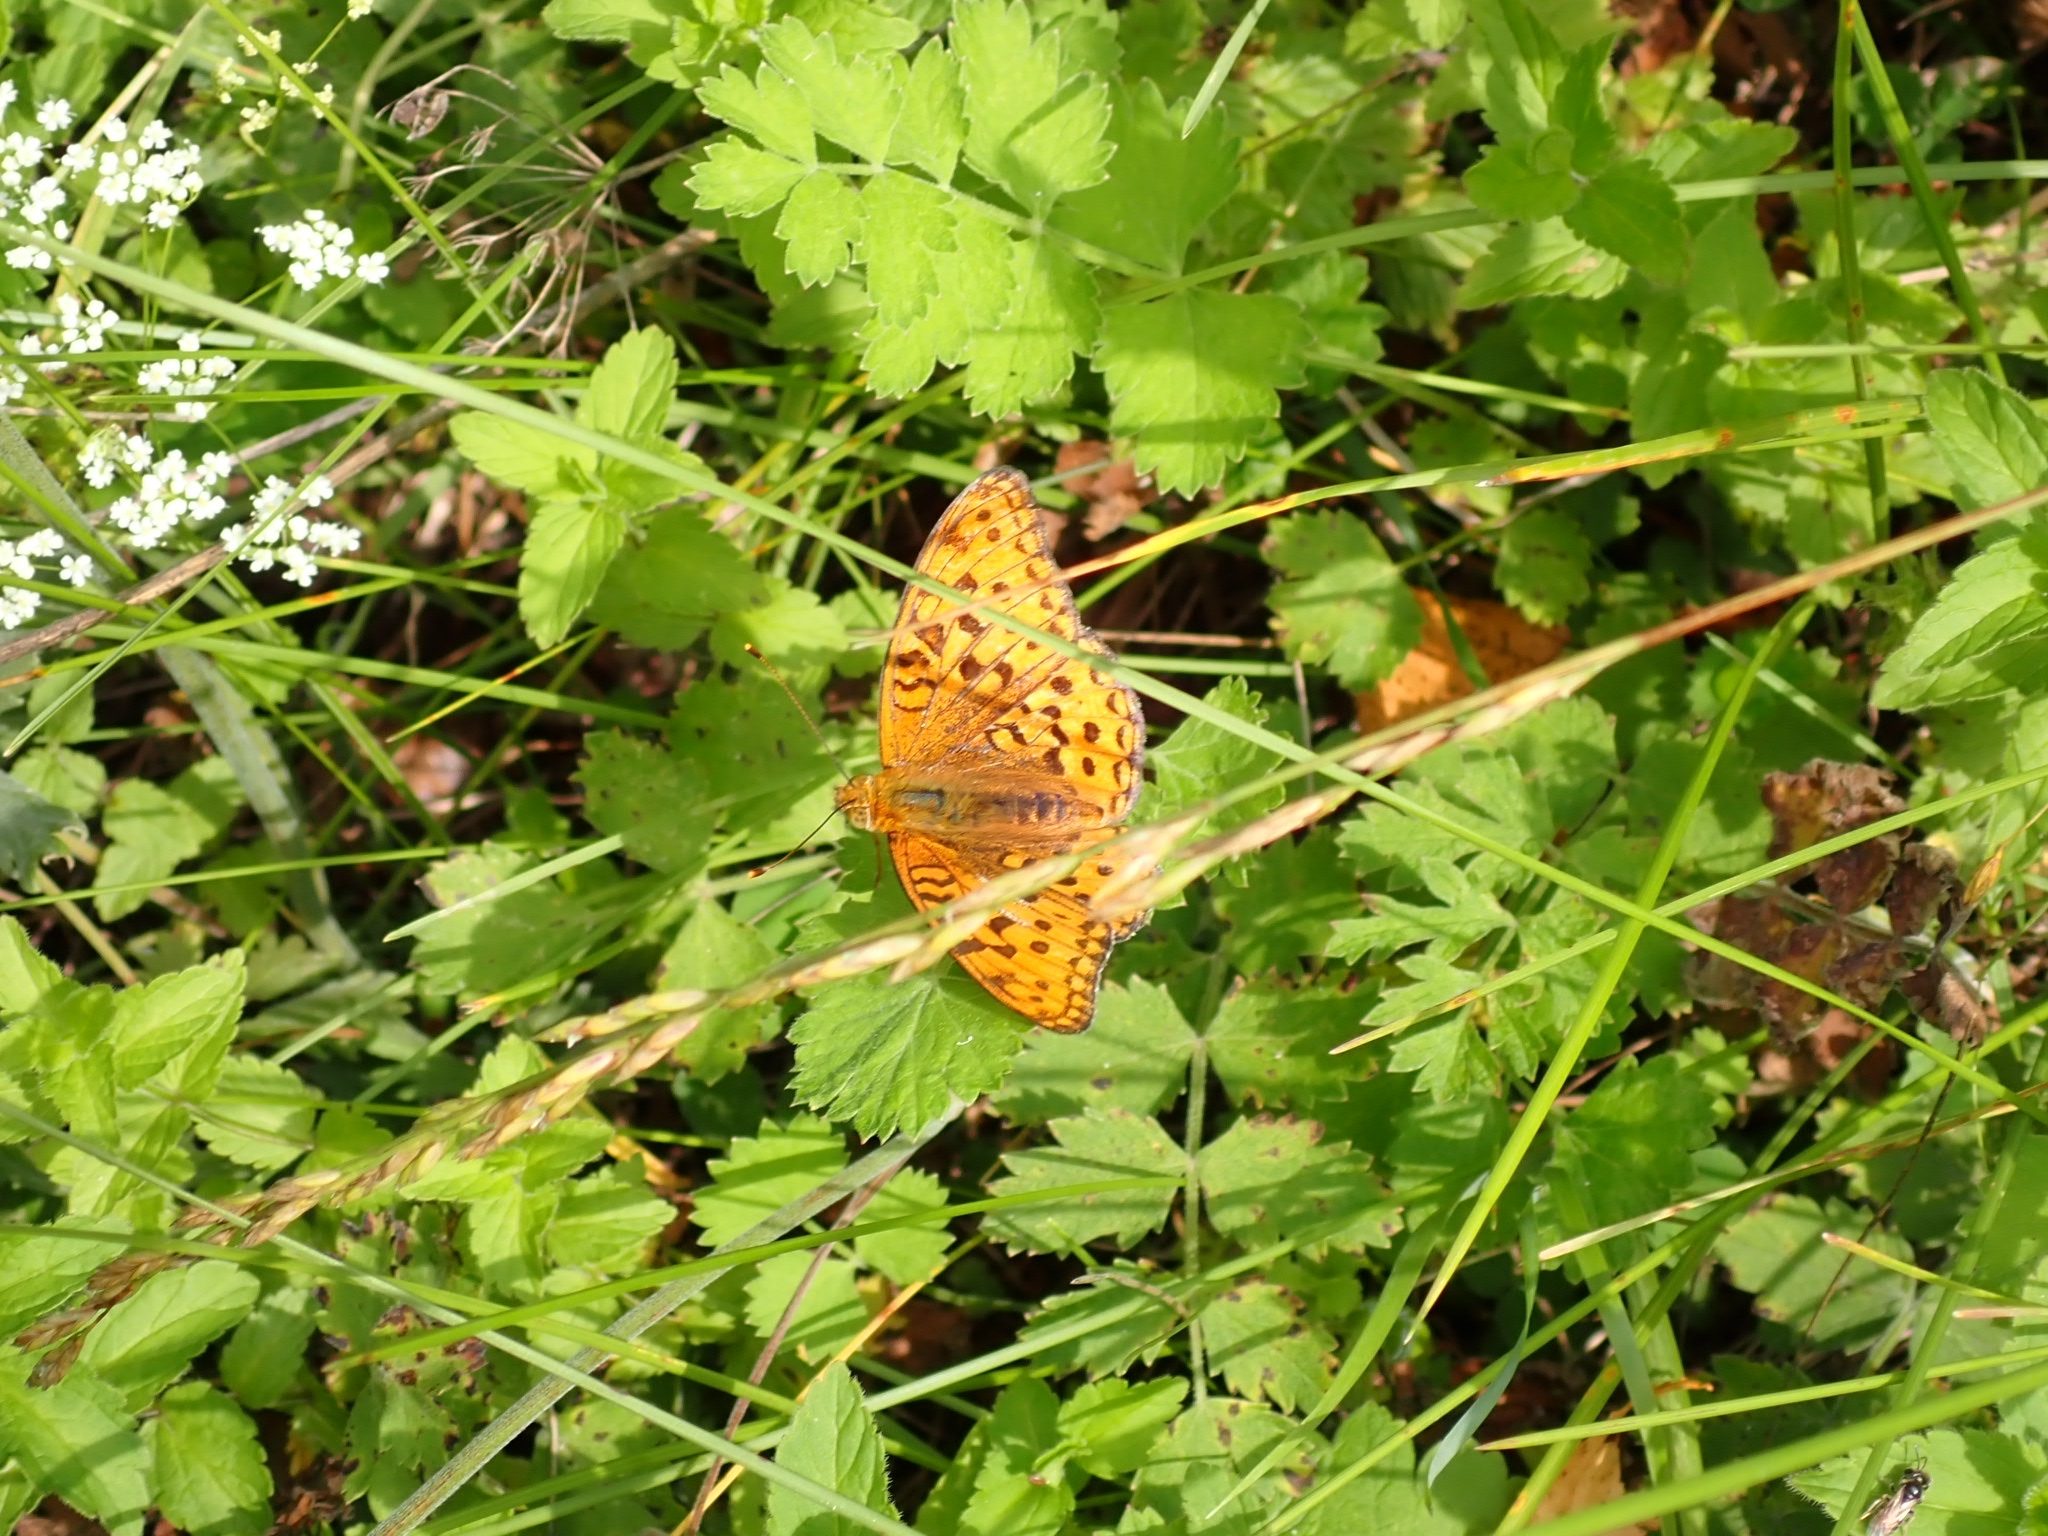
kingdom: Animalia
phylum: Arthropoda
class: Insecta
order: Lepidoptera
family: Nymphalidae
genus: Fabriciana
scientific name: Fabriciana adippe
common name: High brown fritillary
